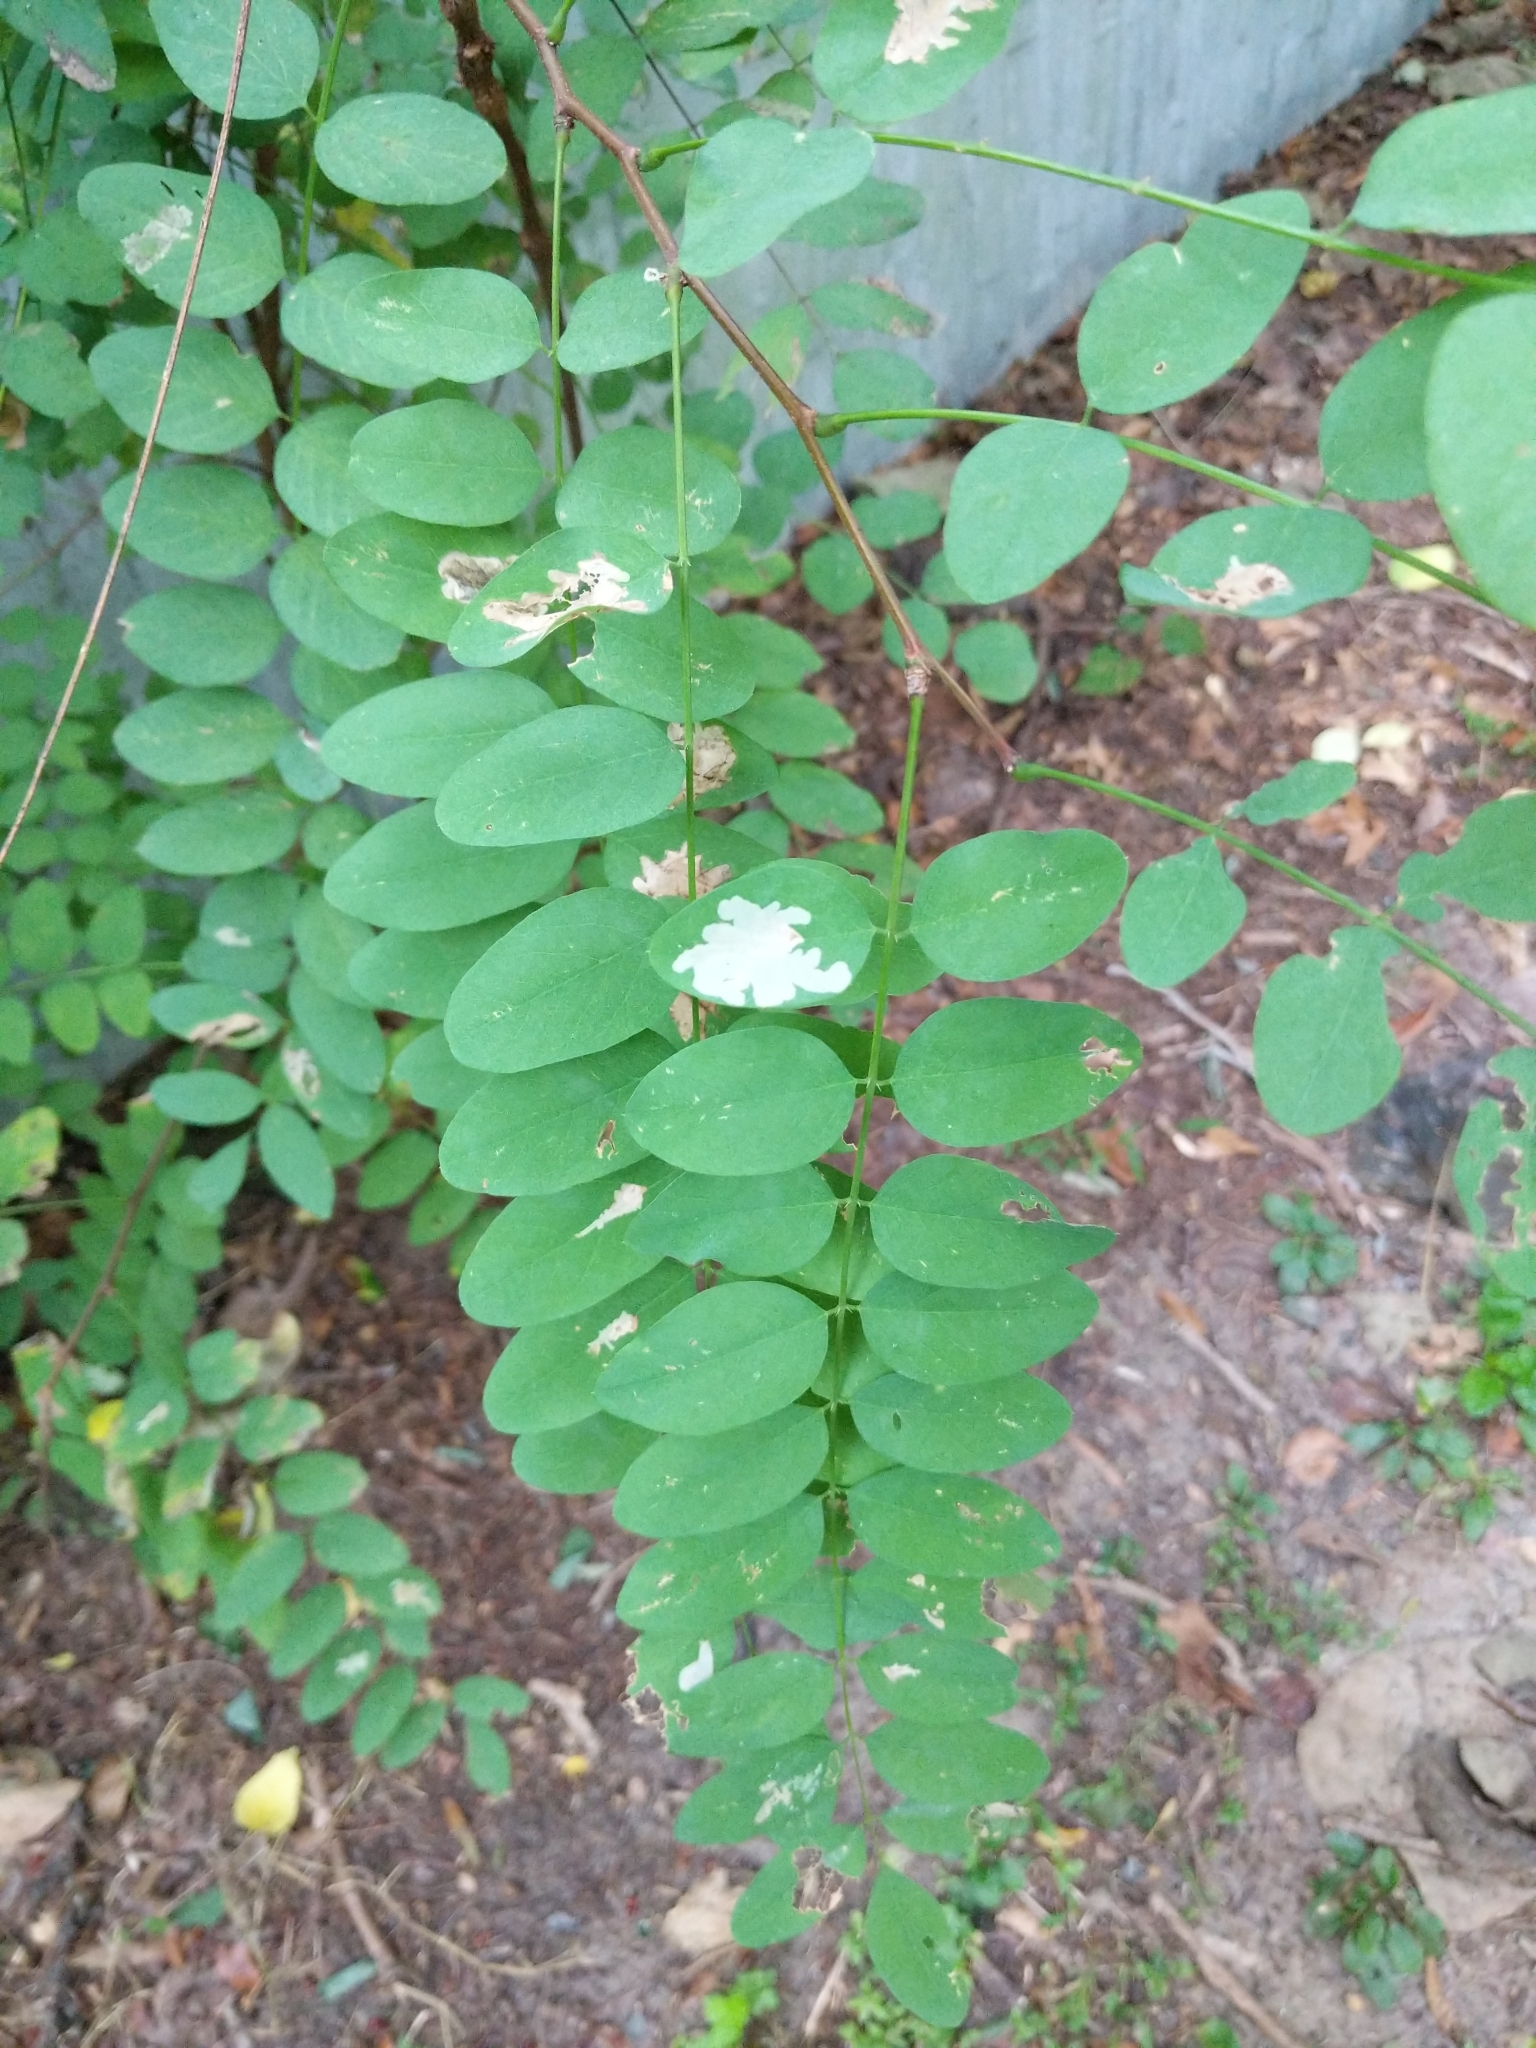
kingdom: Plantae
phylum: Tracheophyta
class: Magnoliopsida
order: Fabales
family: Fabaceae
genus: Robinia
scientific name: Robinia pseudoacacia
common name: Black locust
